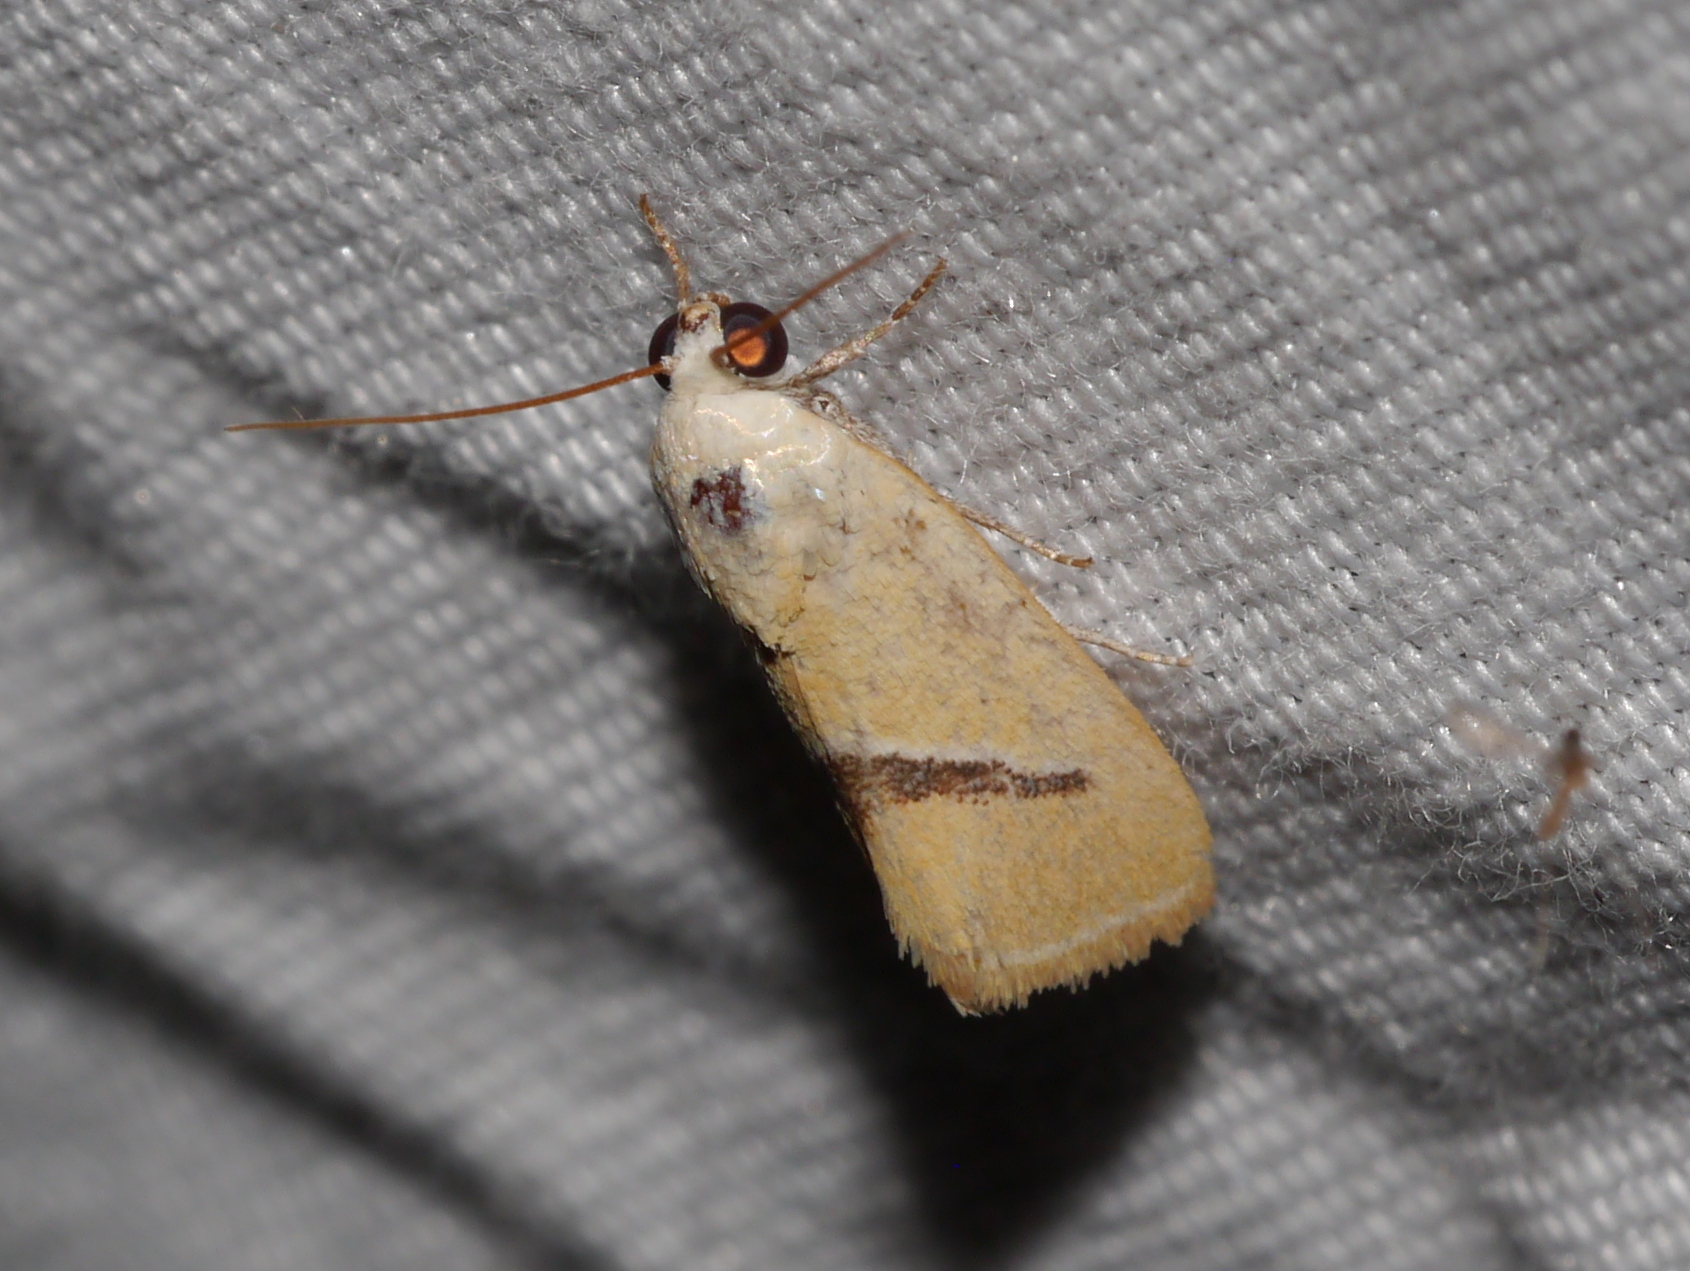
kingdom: Animalia
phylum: Arthropoda
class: Insecta
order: Lepidoptera
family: Noctuidae
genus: Ponometia
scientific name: Ponometia venustula
